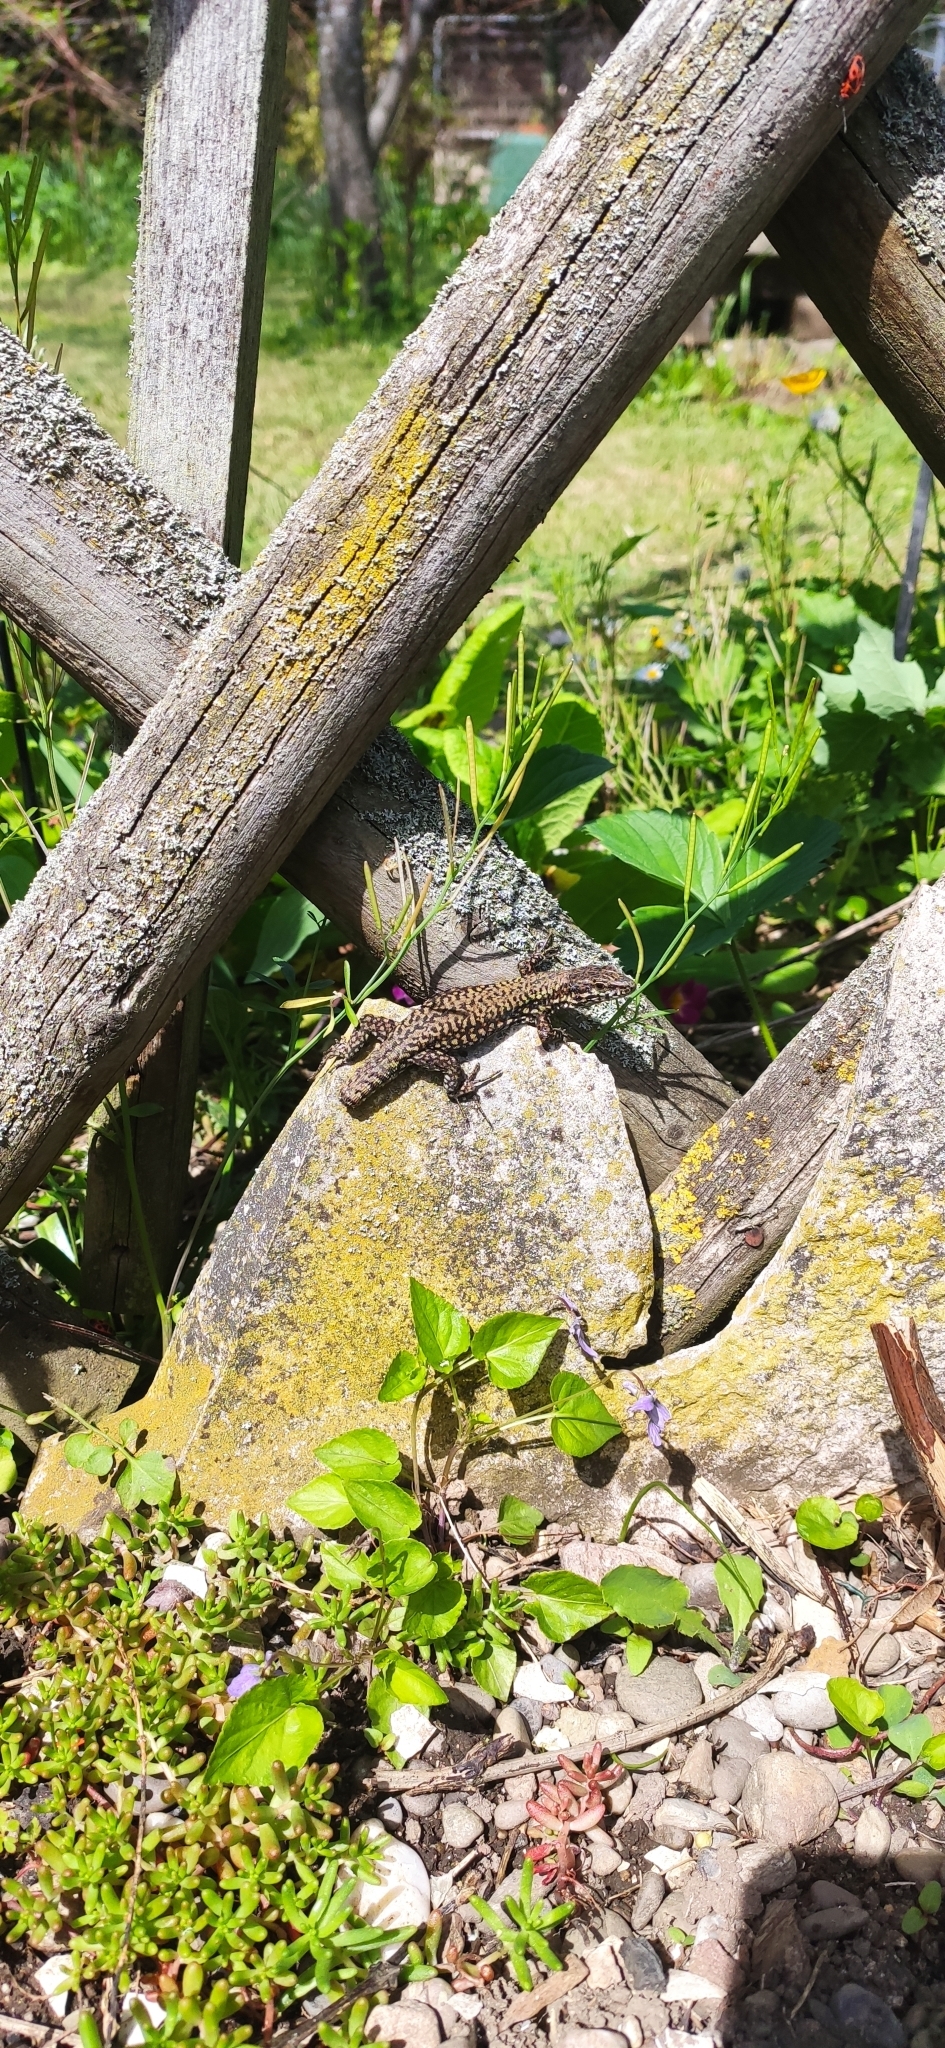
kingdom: Animalia
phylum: Chordata
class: Squamata
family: Lacertidae
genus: Podarcis
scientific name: Podarcis muralis
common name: Common wall lizard
